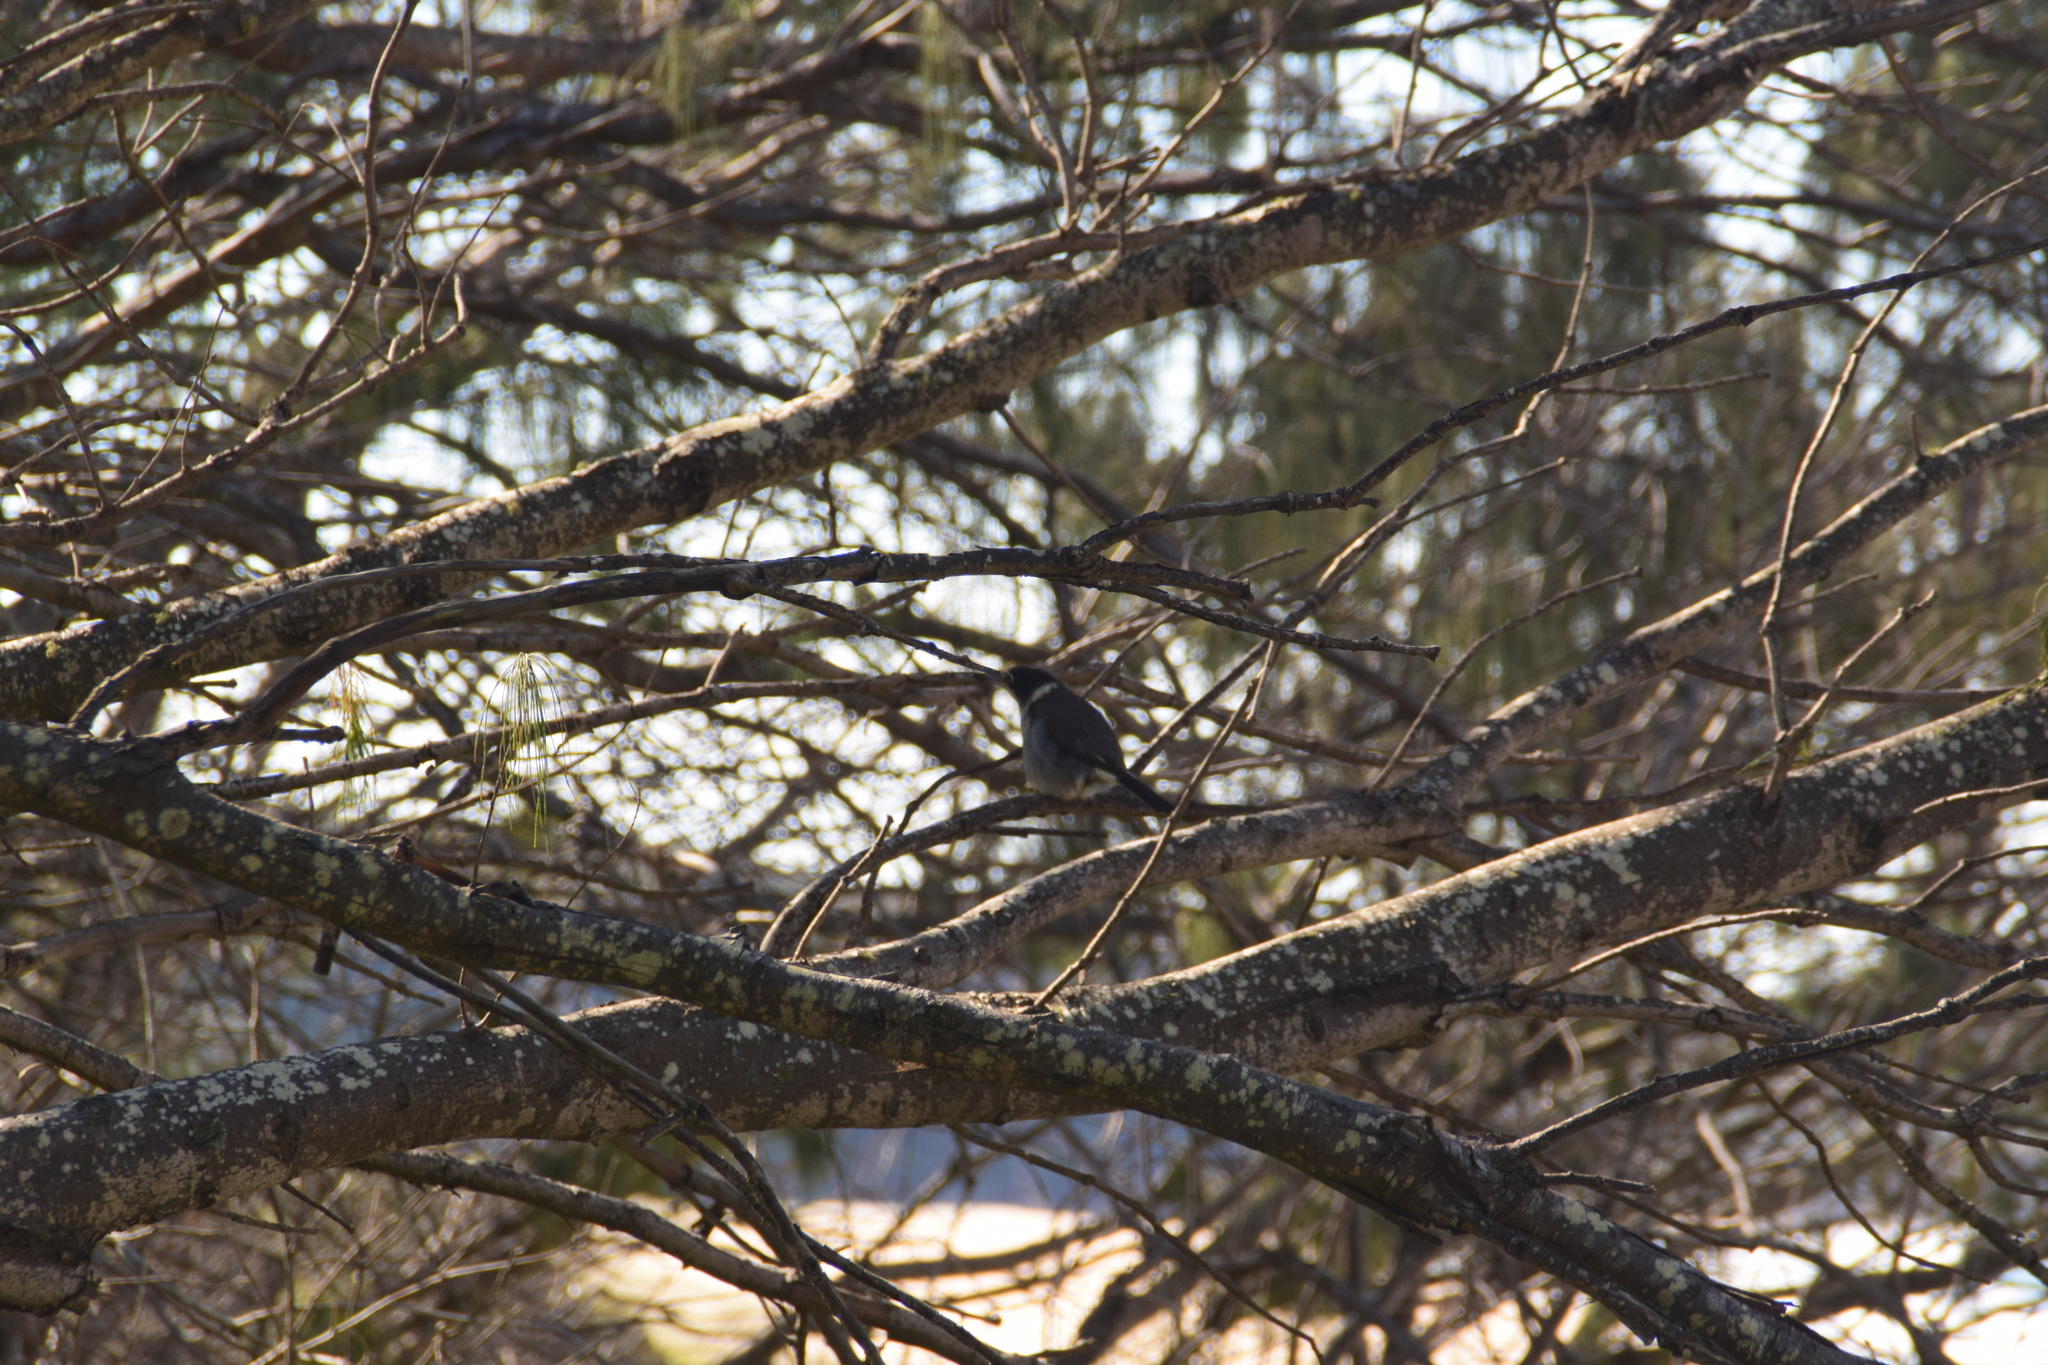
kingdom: Animalia
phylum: Chordata
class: Aves
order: Passeriformes
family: Cracticidae
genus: Cracticus
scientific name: Cracticus torquatus
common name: Grey butcherbird
